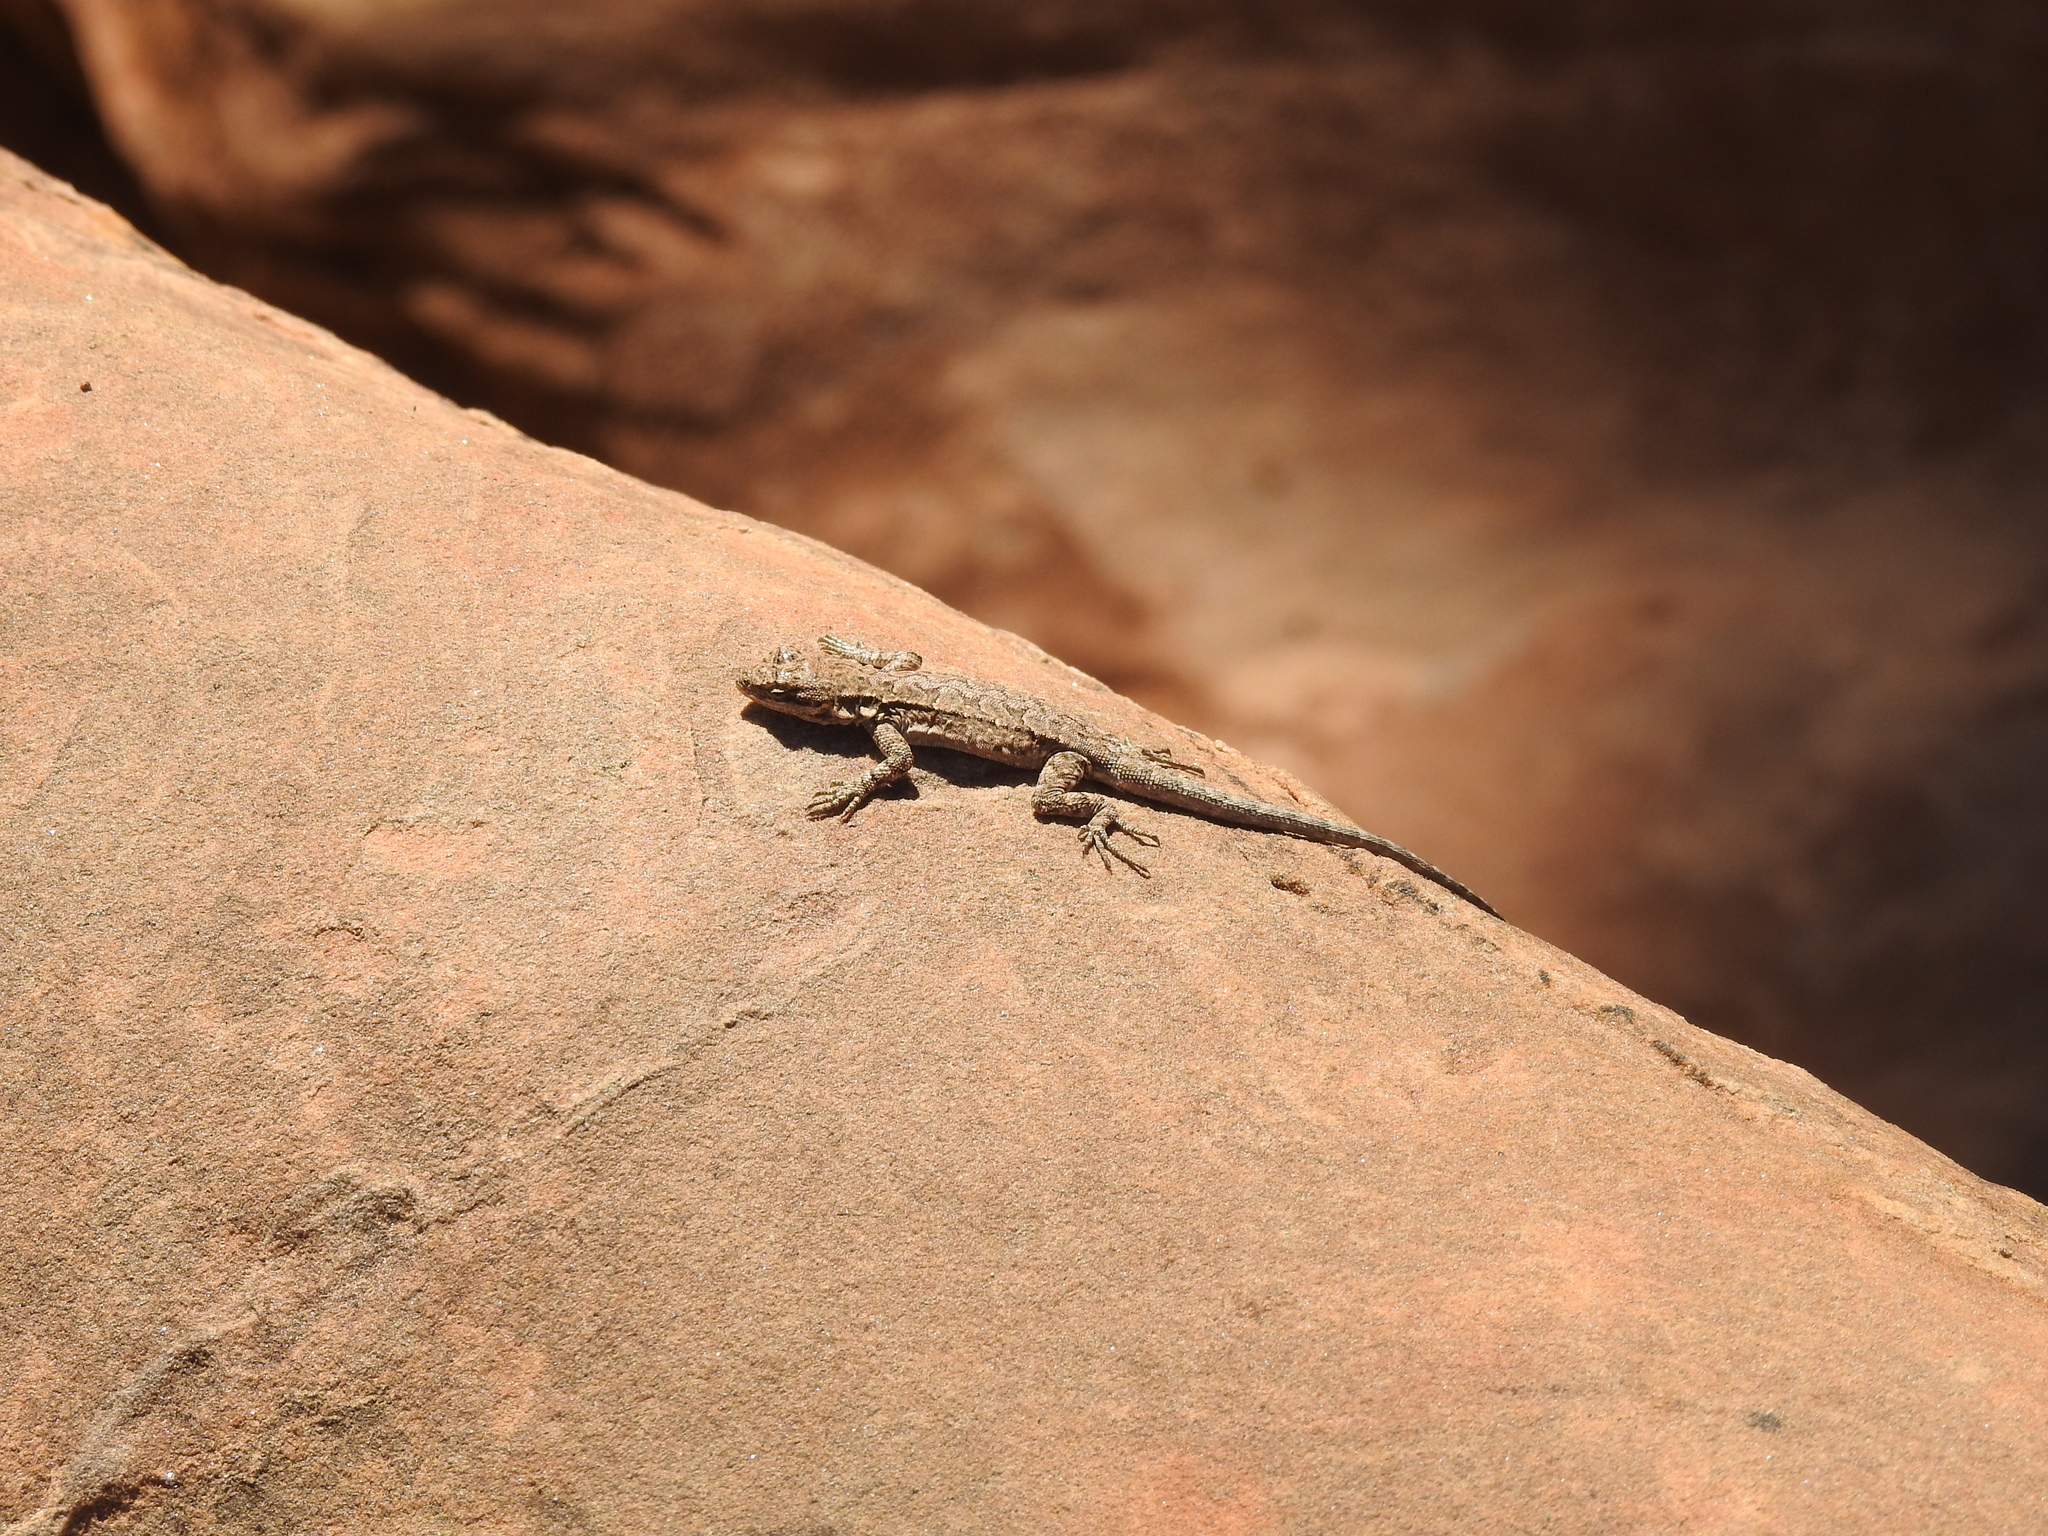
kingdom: Animalia
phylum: Chordata
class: Squamata
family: Phrynosomatidae
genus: Urosaurus
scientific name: Urosaurus ornatus
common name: Ornate tree lizard
